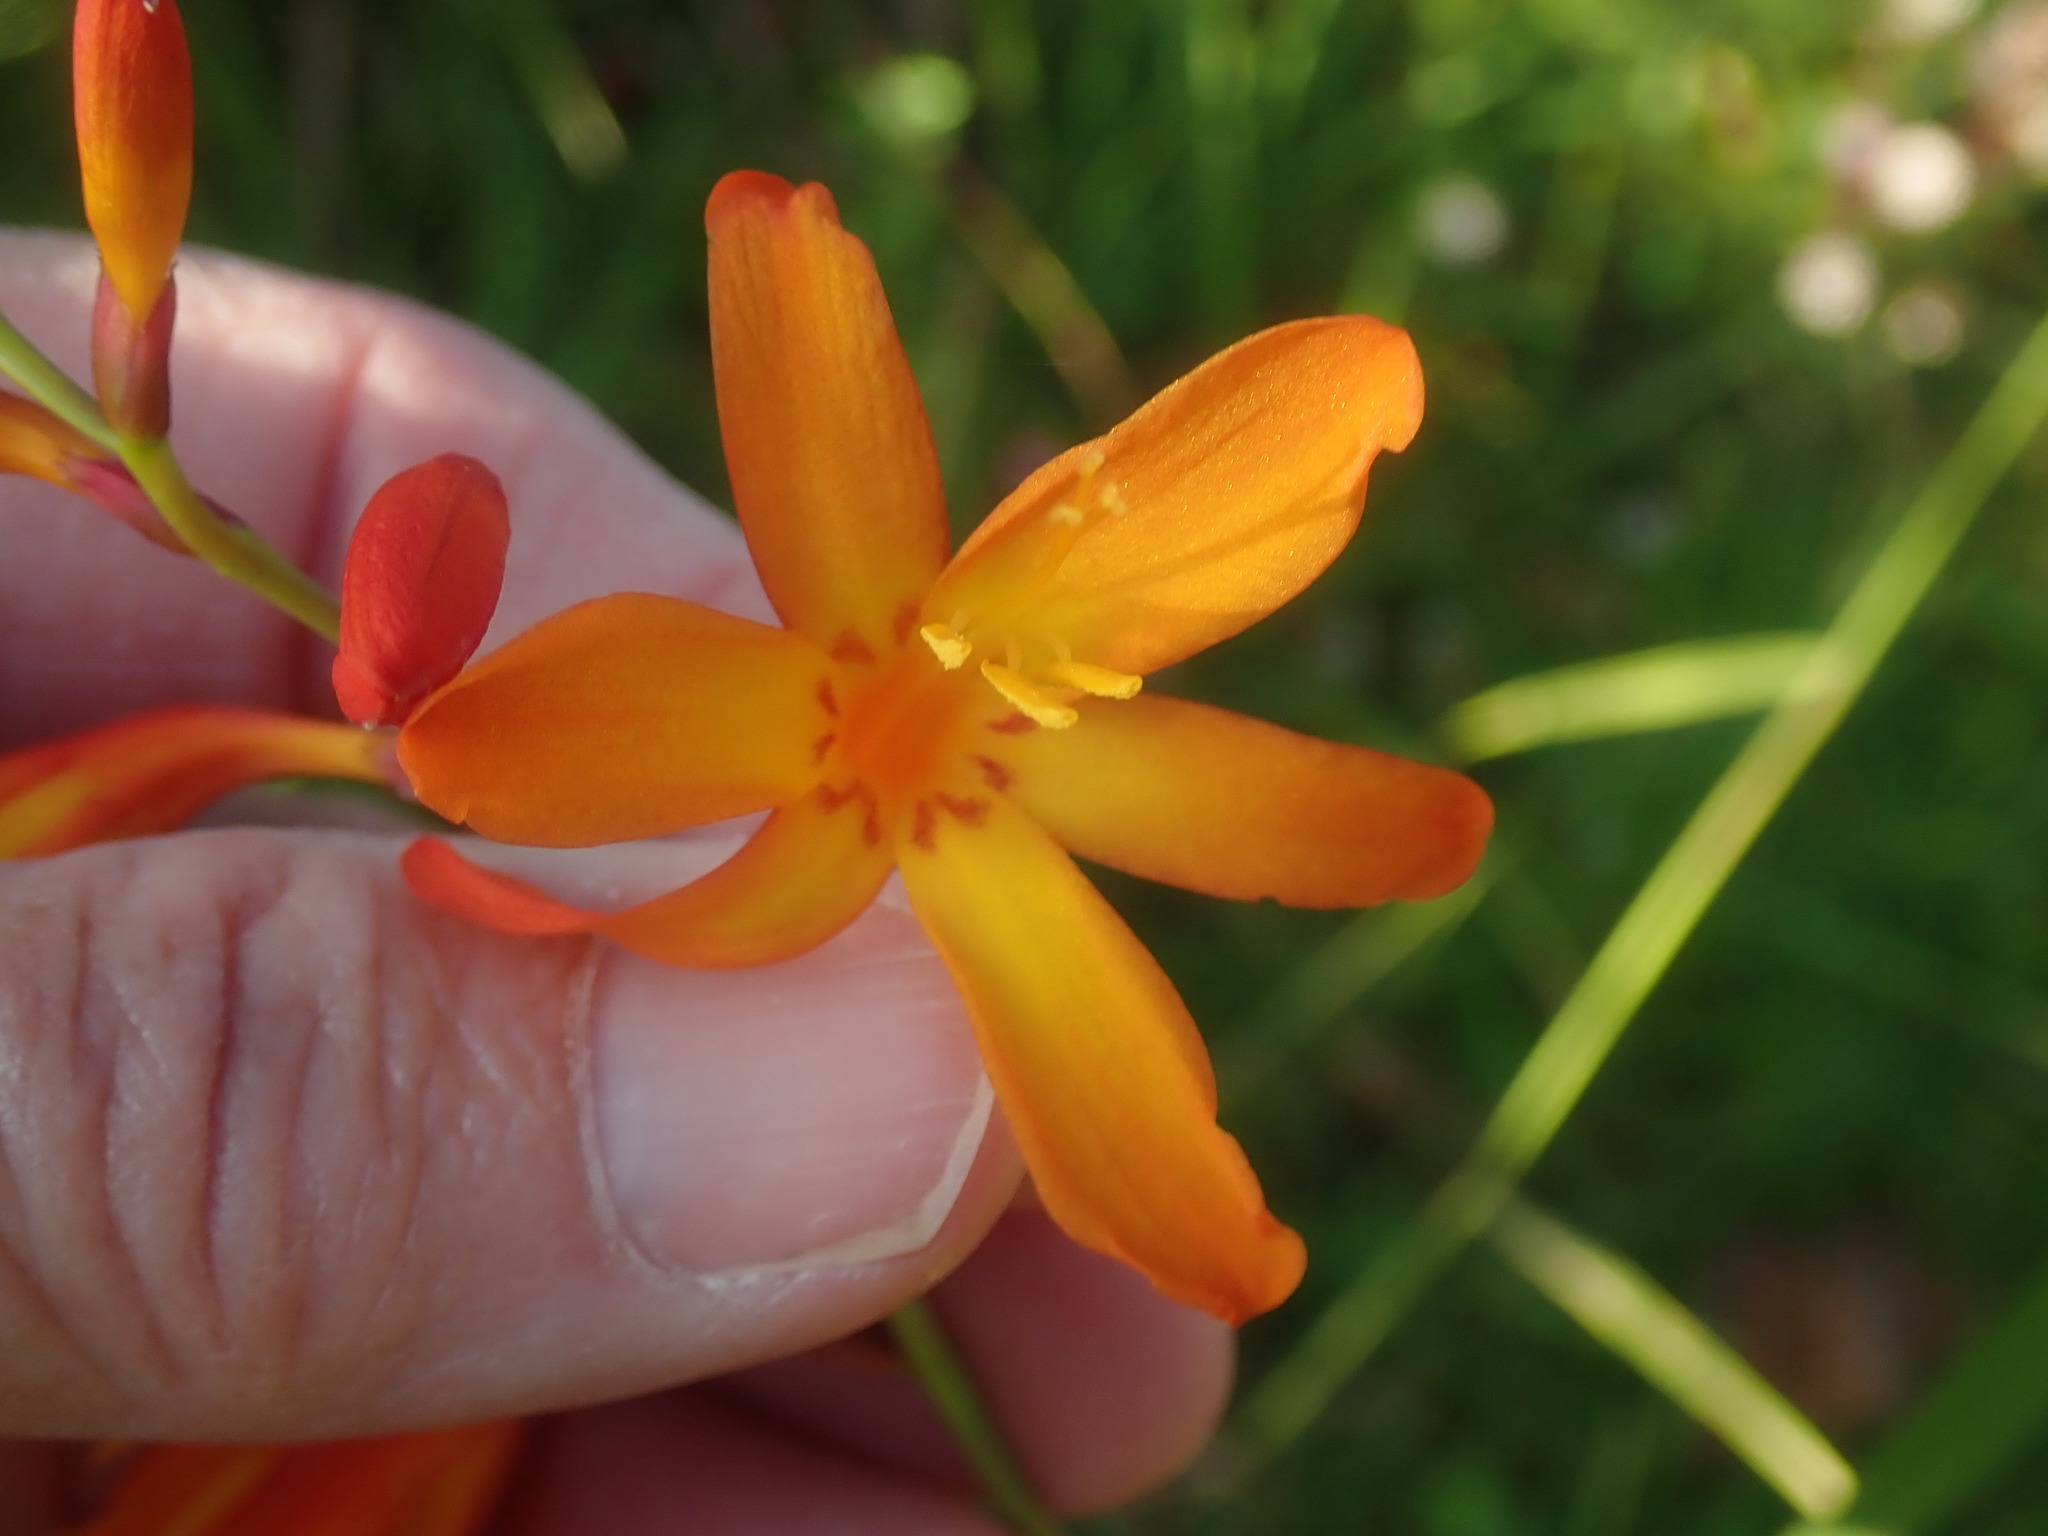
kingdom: Plantae
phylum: Tracheophyta
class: Liliopsida
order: Asparagales
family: Iridaceae
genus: Crocosmia
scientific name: Crocosmia crocosmiiflora
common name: Montbretia
